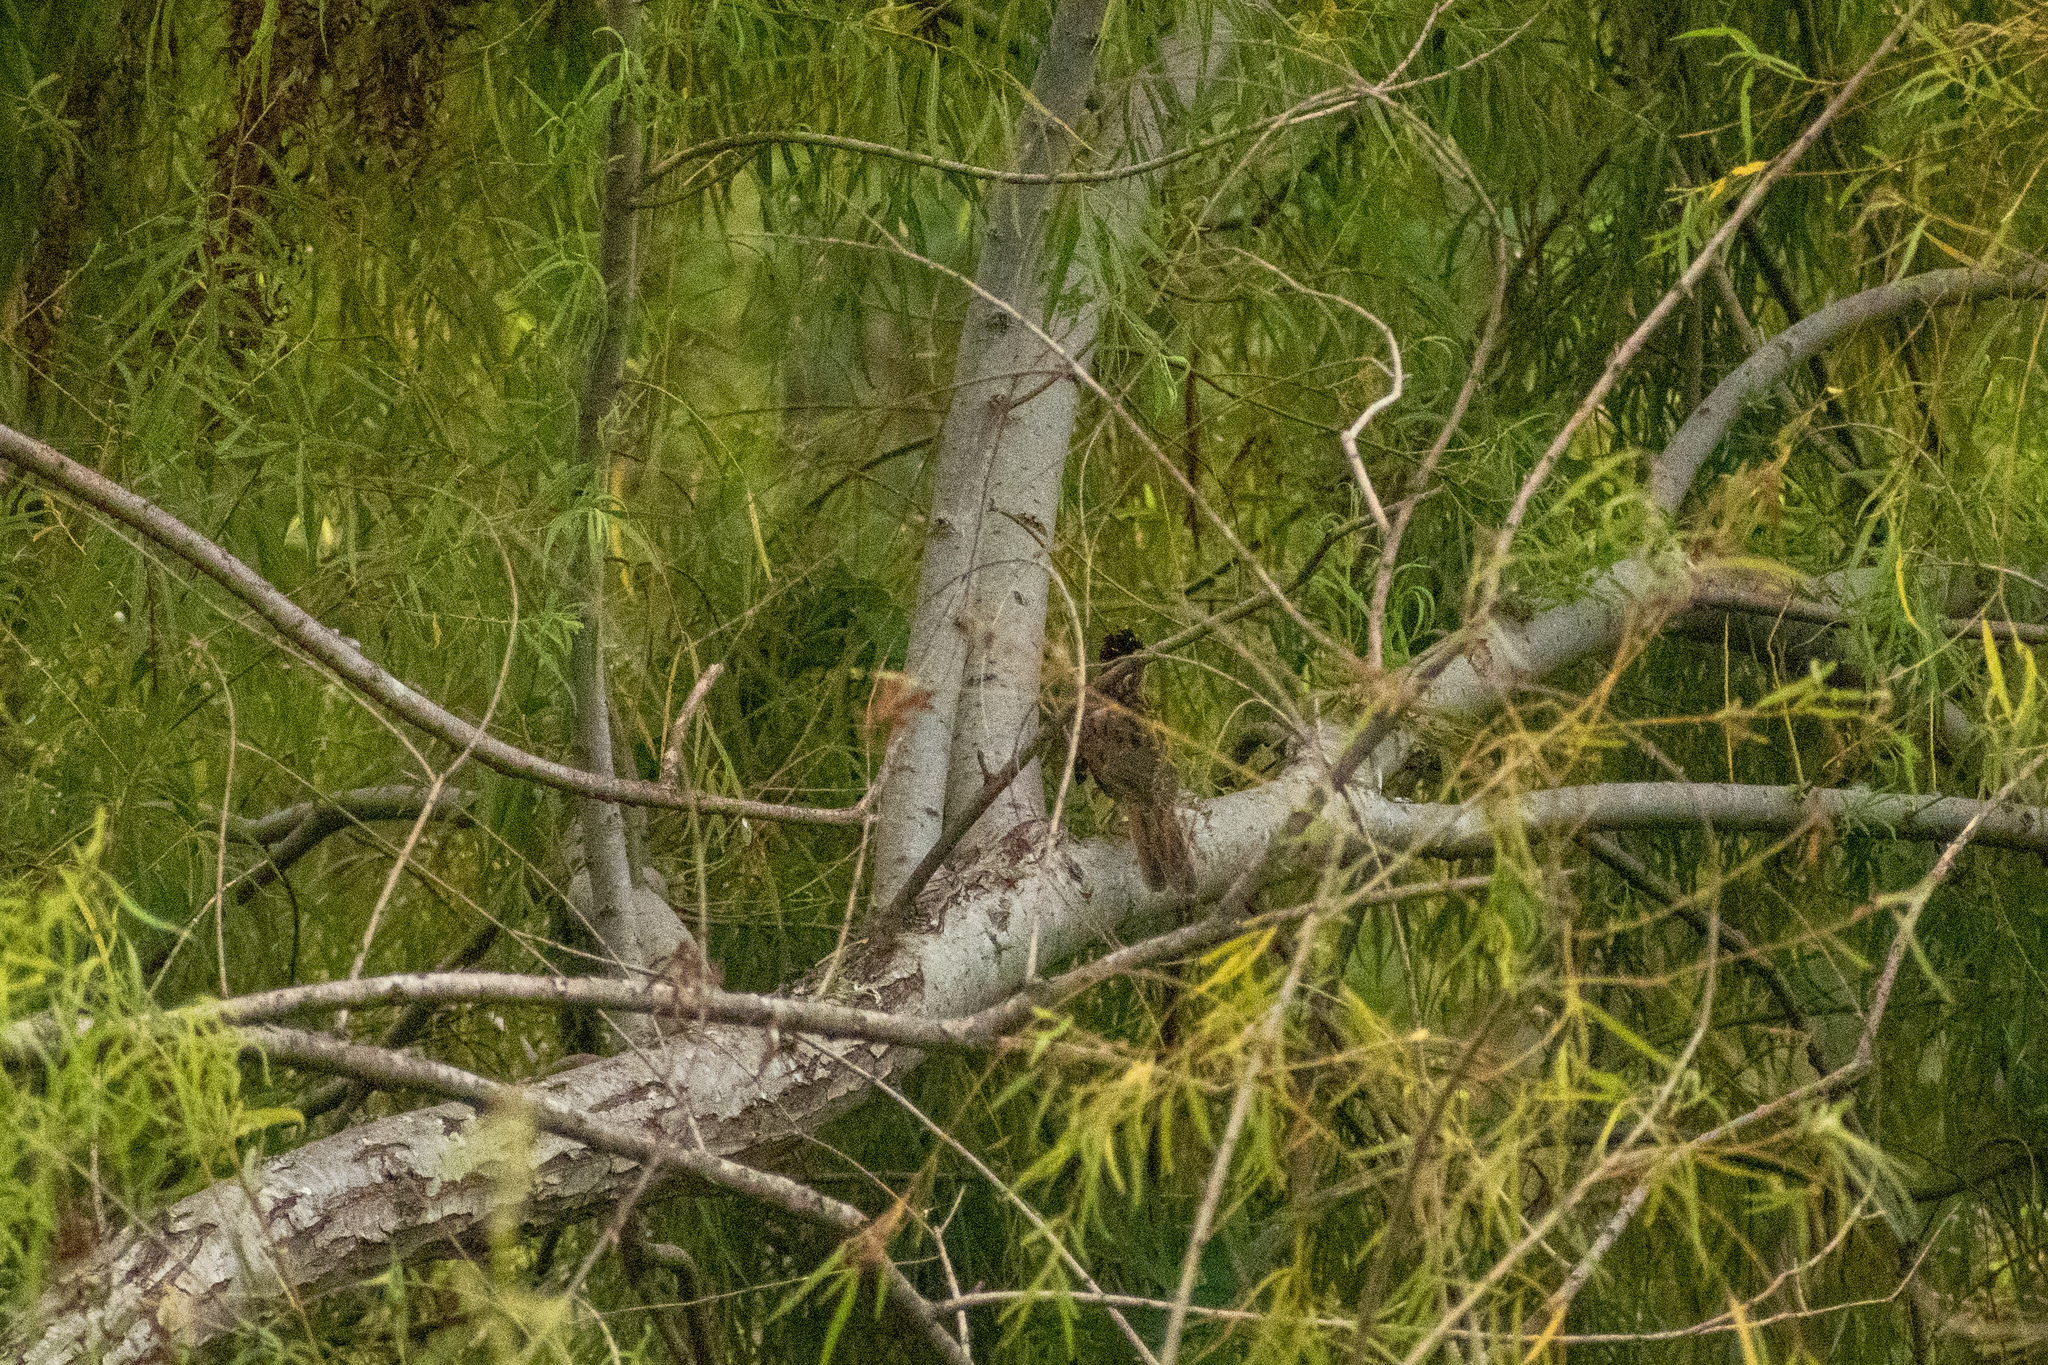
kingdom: Animalia
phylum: Chordata
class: Aves
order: Cuculiformes
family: Cuculidae
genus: Tapera
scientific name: Tapera naevia
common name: Striped cuckoo
